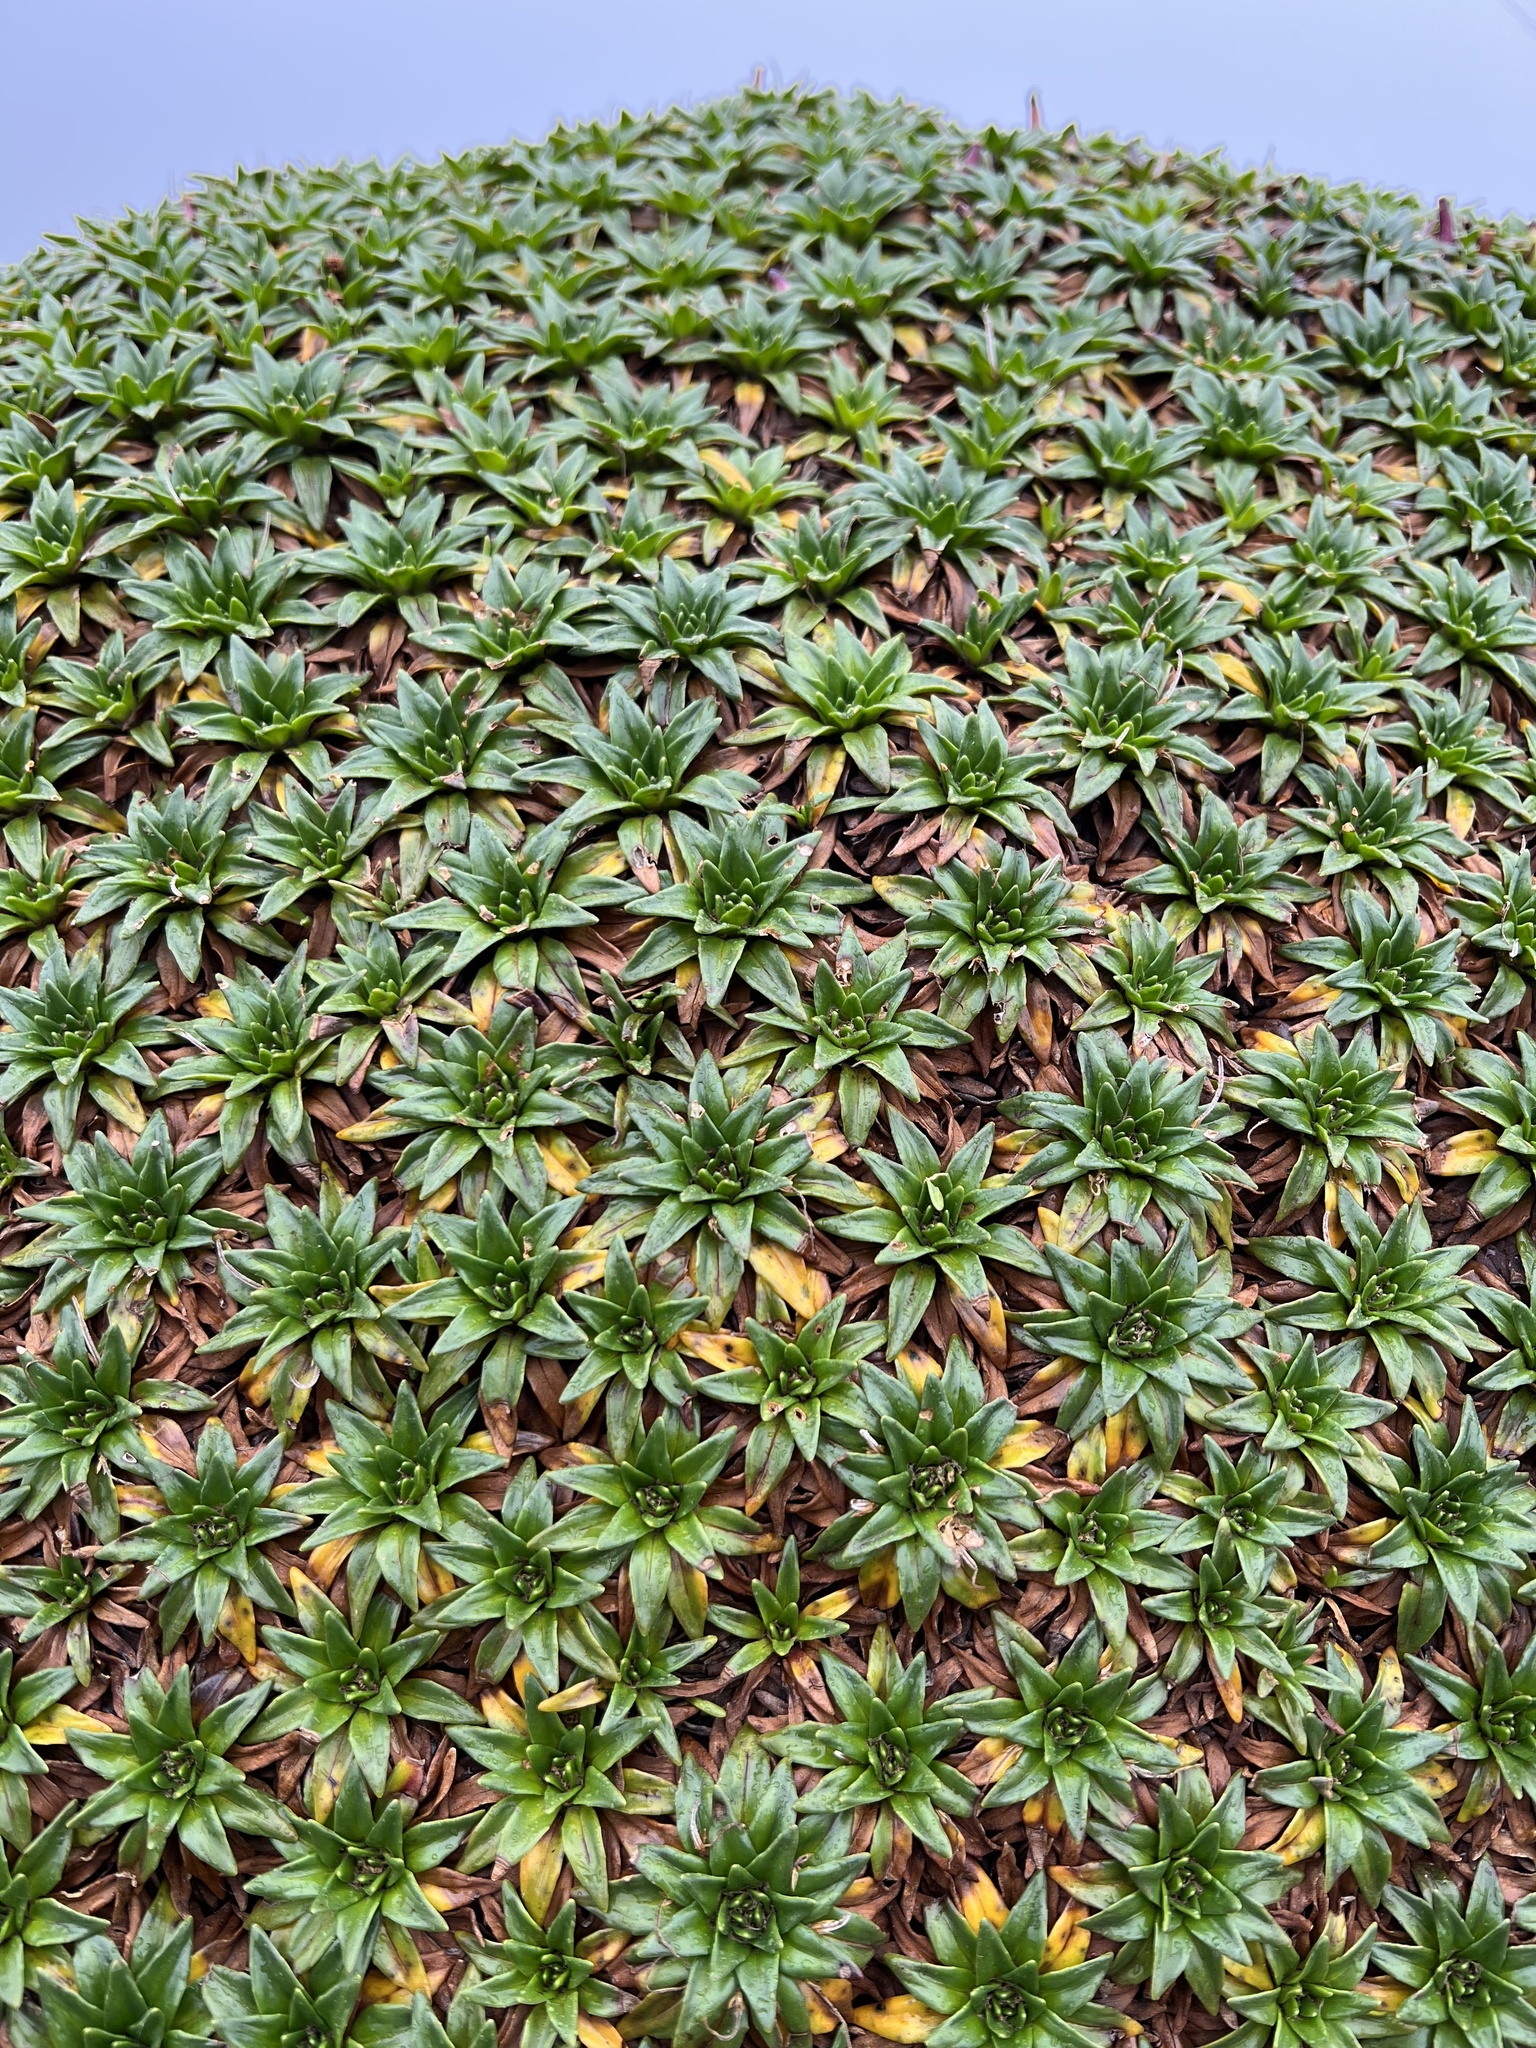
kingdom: Plantae
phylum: Tracheophyta
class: Magnoliopsida
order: Lamiales
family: Plantaginaceae
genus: Plantago
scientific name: Plantago rigida
